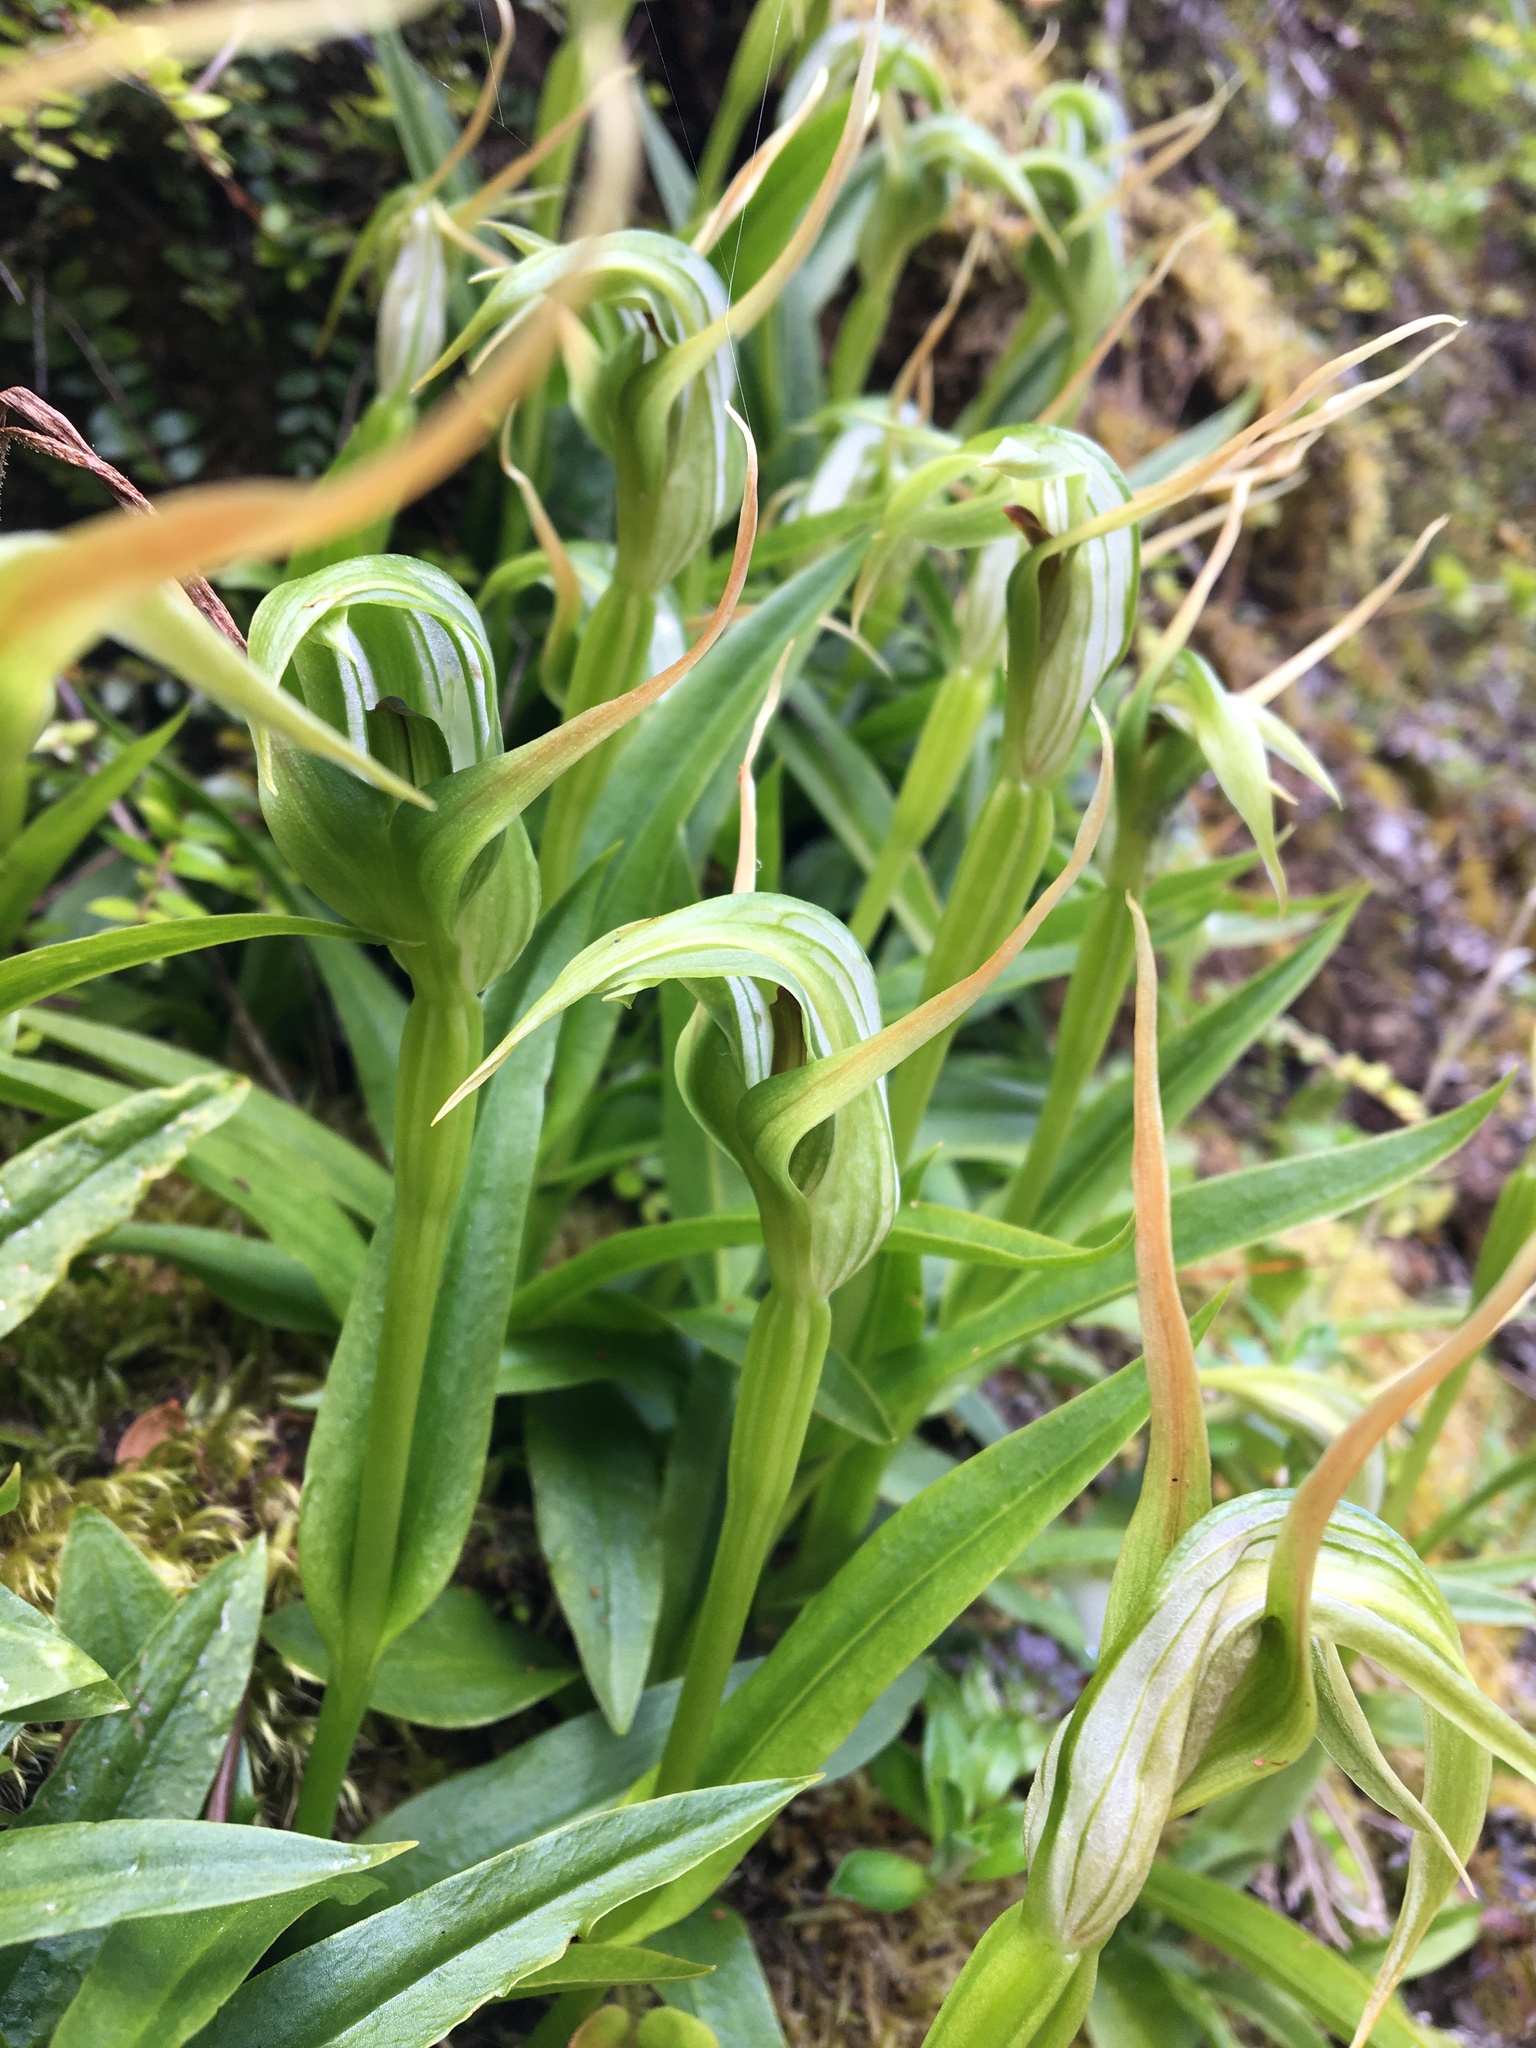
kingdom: Plantae
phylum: Tracheophyta
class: Liliopsida
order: Asparagales
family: Orchidaceae
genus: Pterostylis
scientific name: Pterostylis australis
